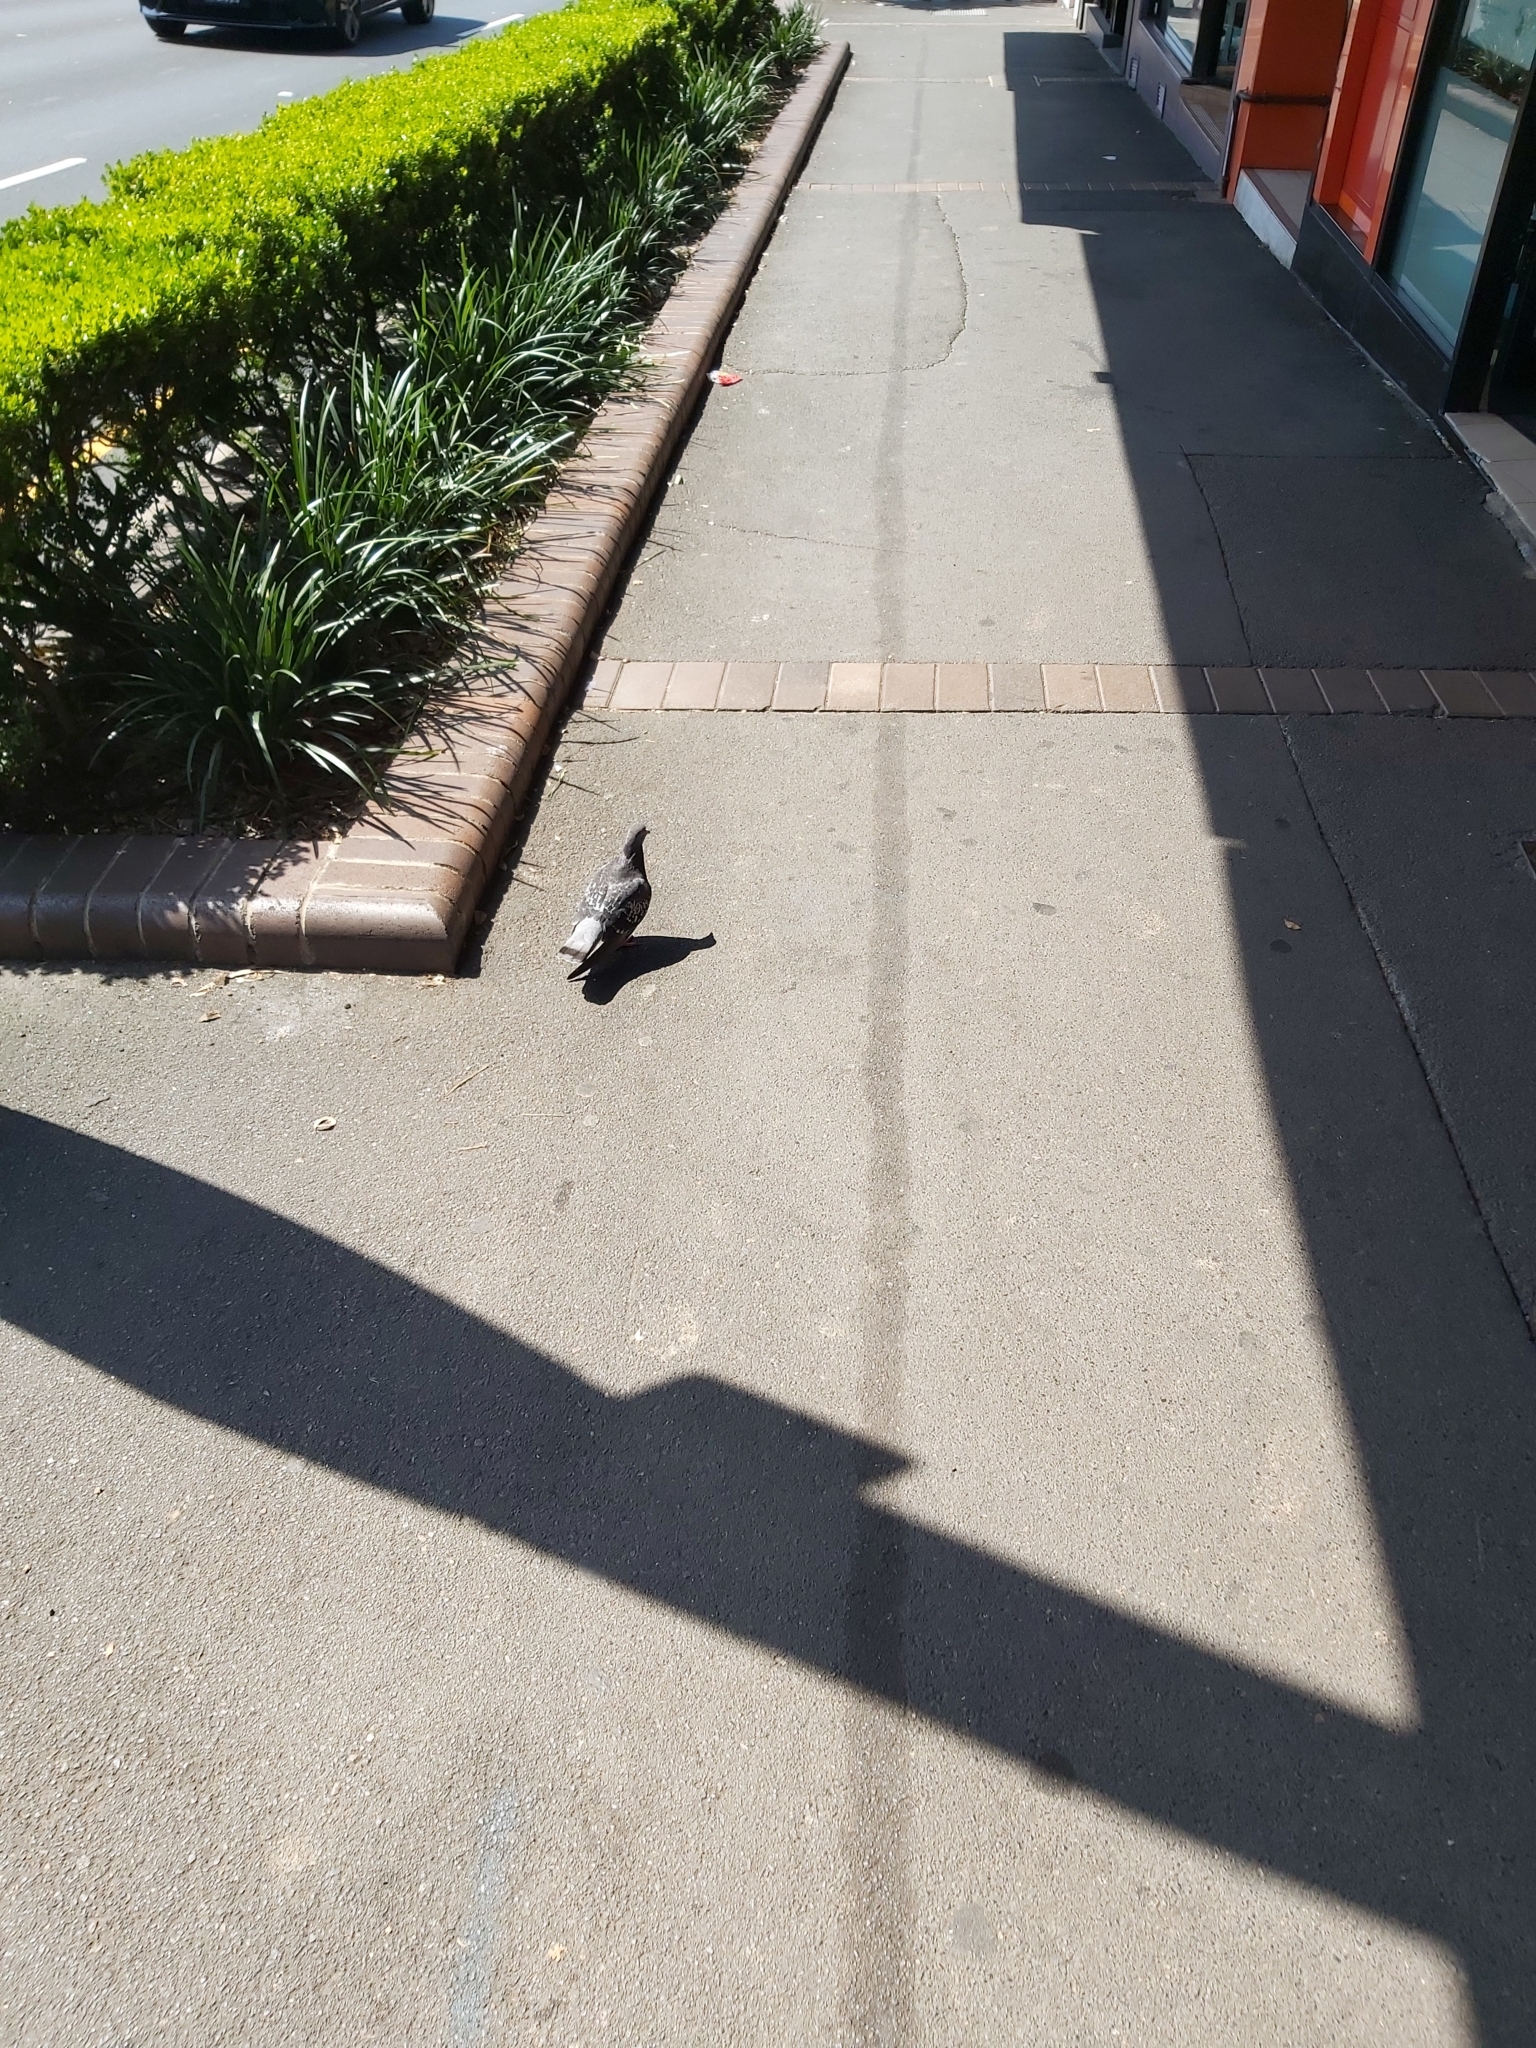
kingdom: Animalia
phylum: Chordata
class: Aves
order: Columbiformes
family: Columbidae
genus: Columba
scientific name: Columba livia
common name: Rock pigeon
